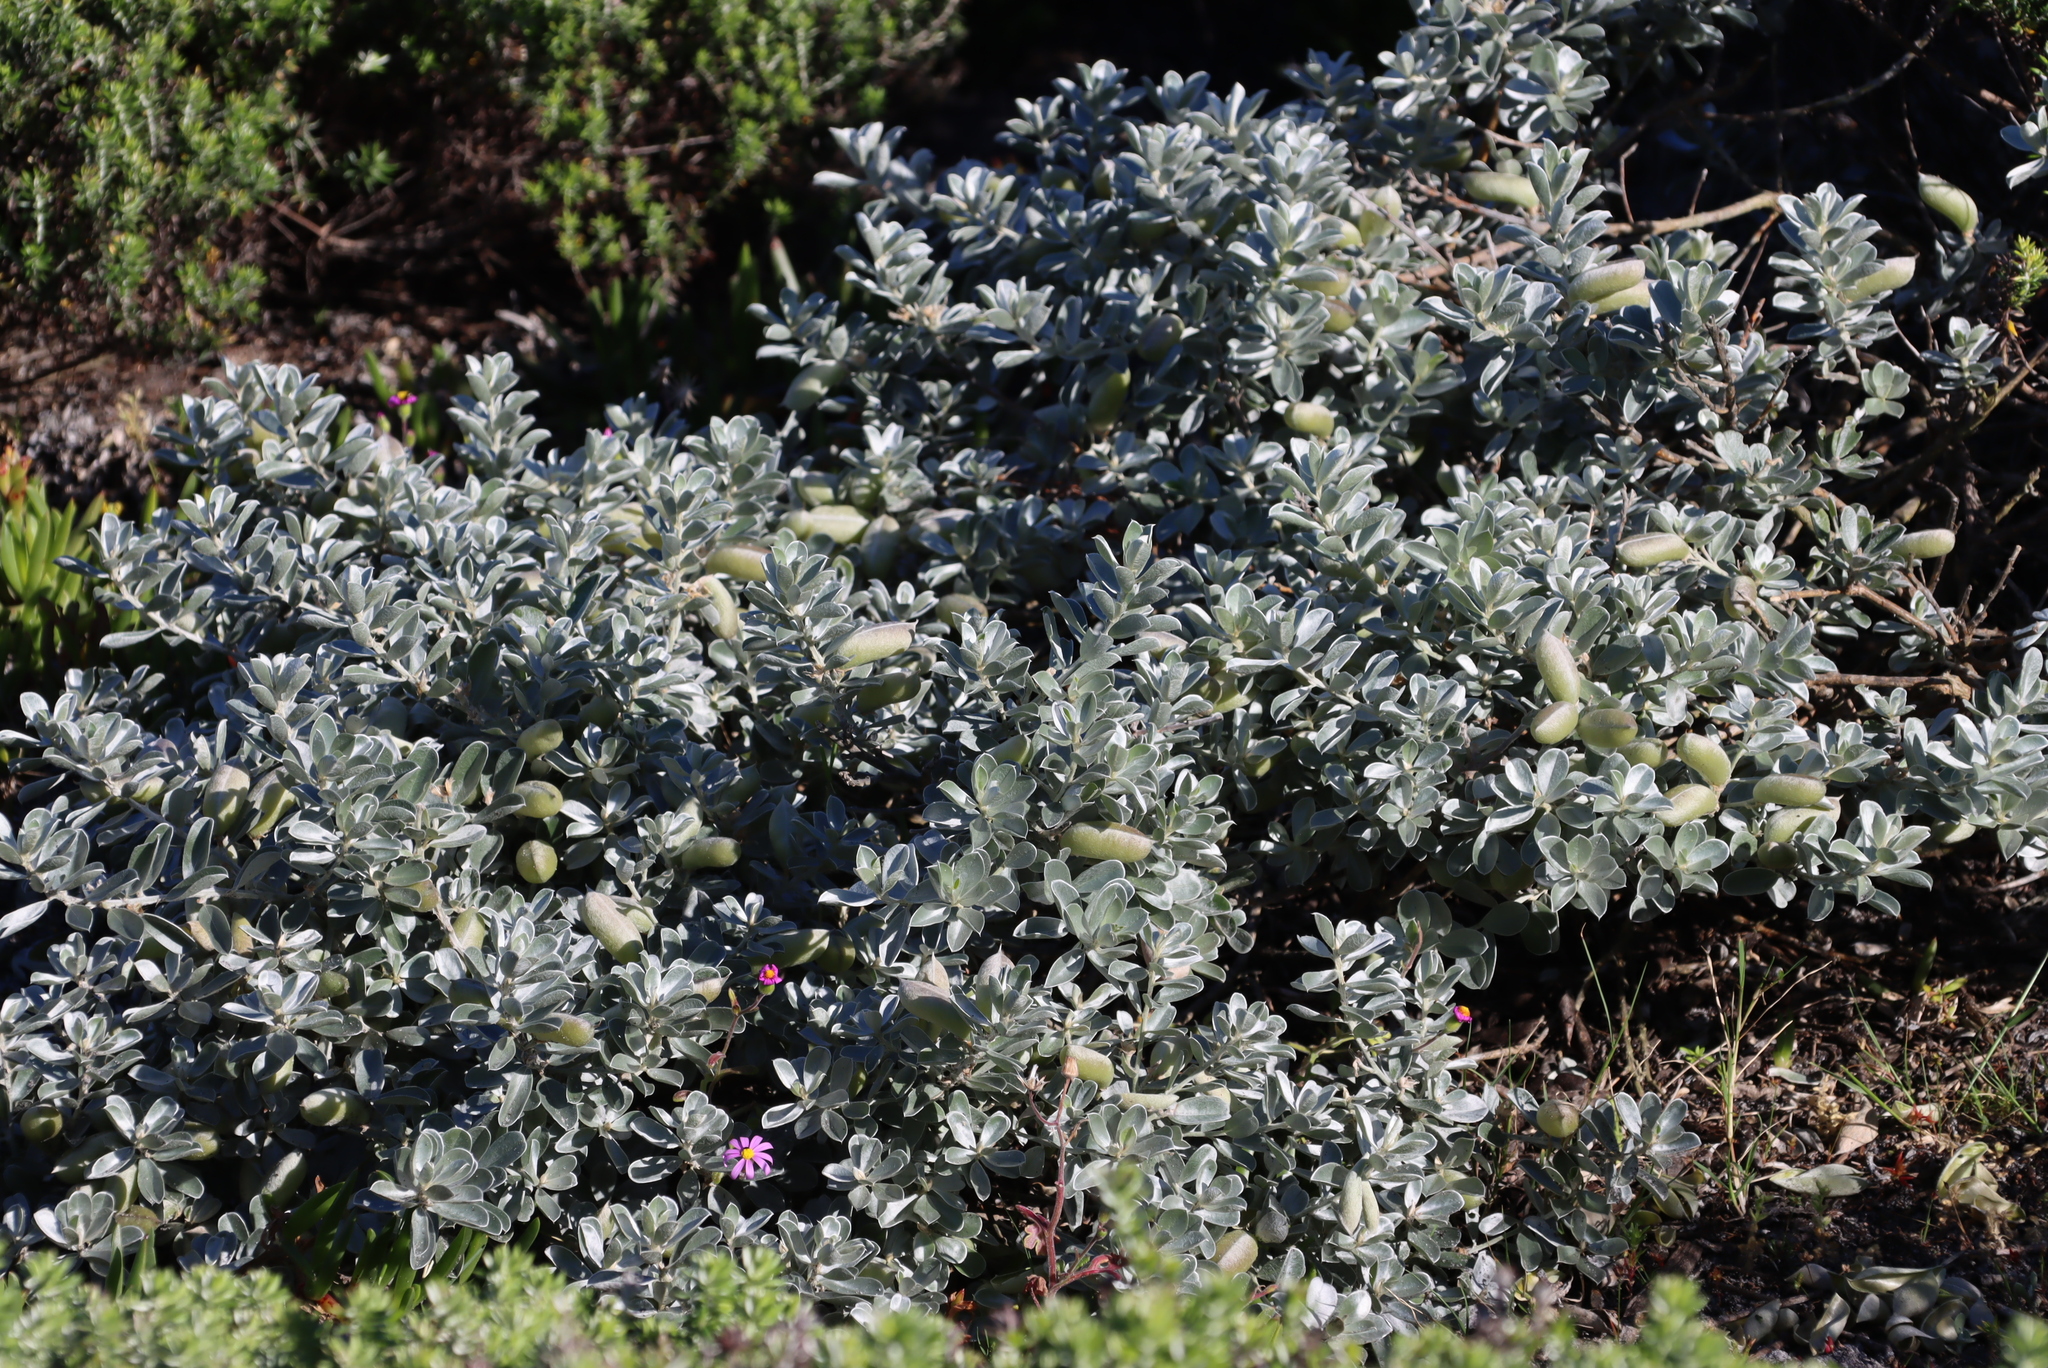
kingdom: Plantae
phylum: Tracheophyta
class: Magnoliopsida
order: Fabales
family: Fabaceae
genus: Podalyria
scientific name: Podalyria sericea
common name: Silver podalyria
